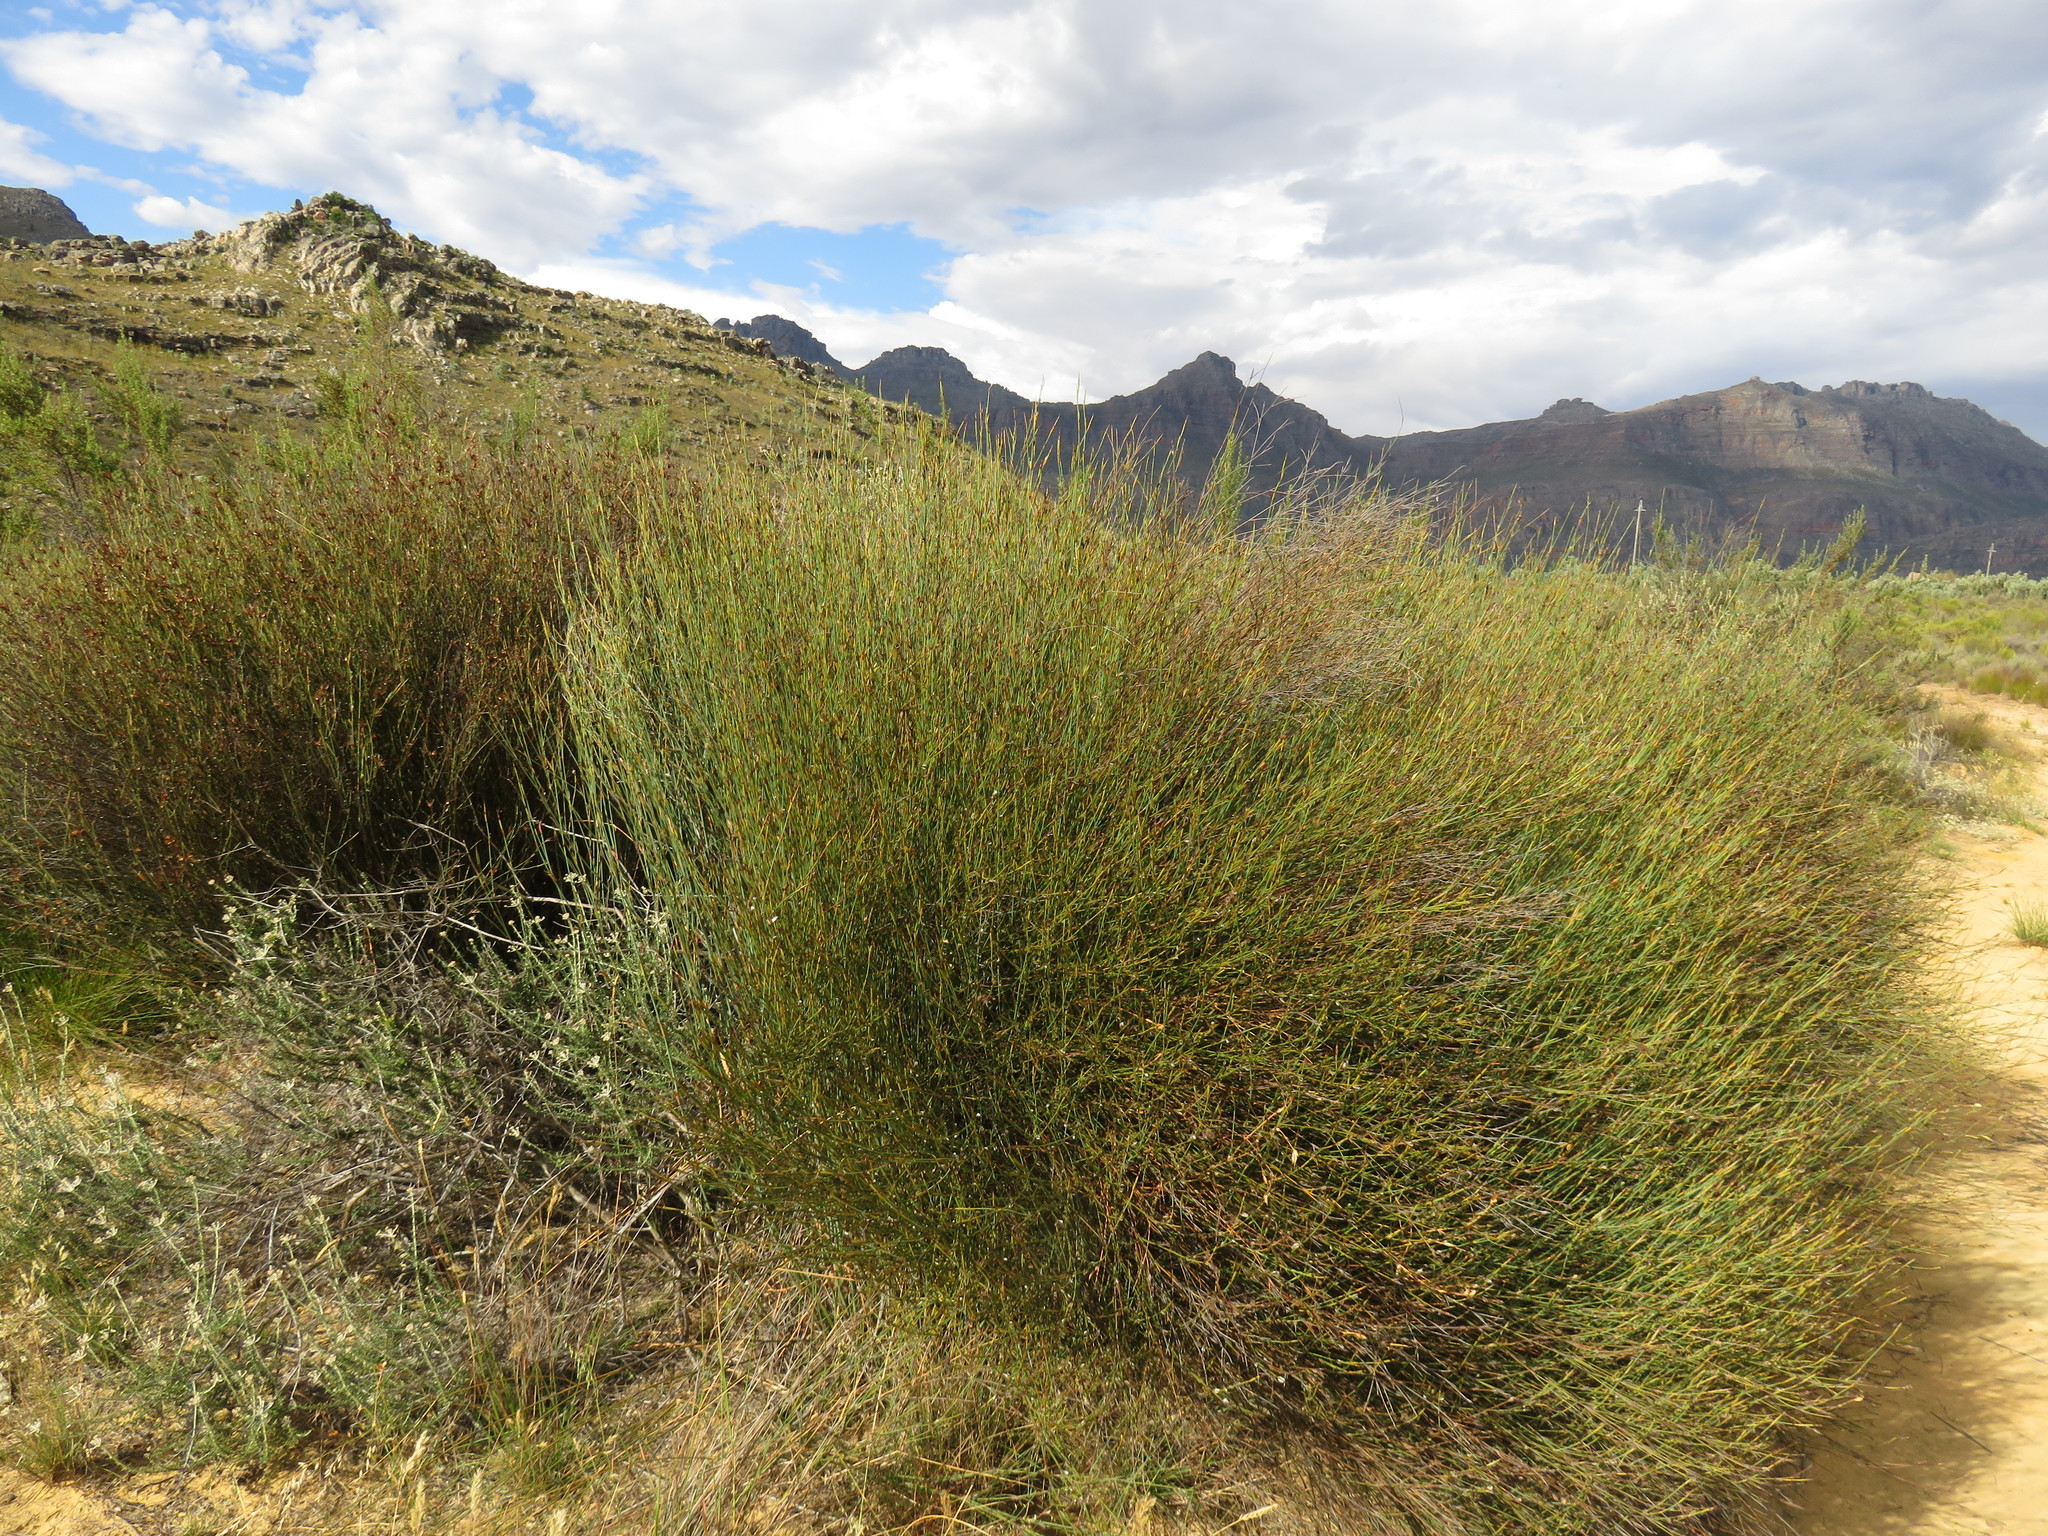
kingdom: Plantae
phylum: Tracheophyta
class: Liliopsida
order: Poales
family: Restionaceae
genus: Willdenowia
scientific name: Willdenowia incurvata
